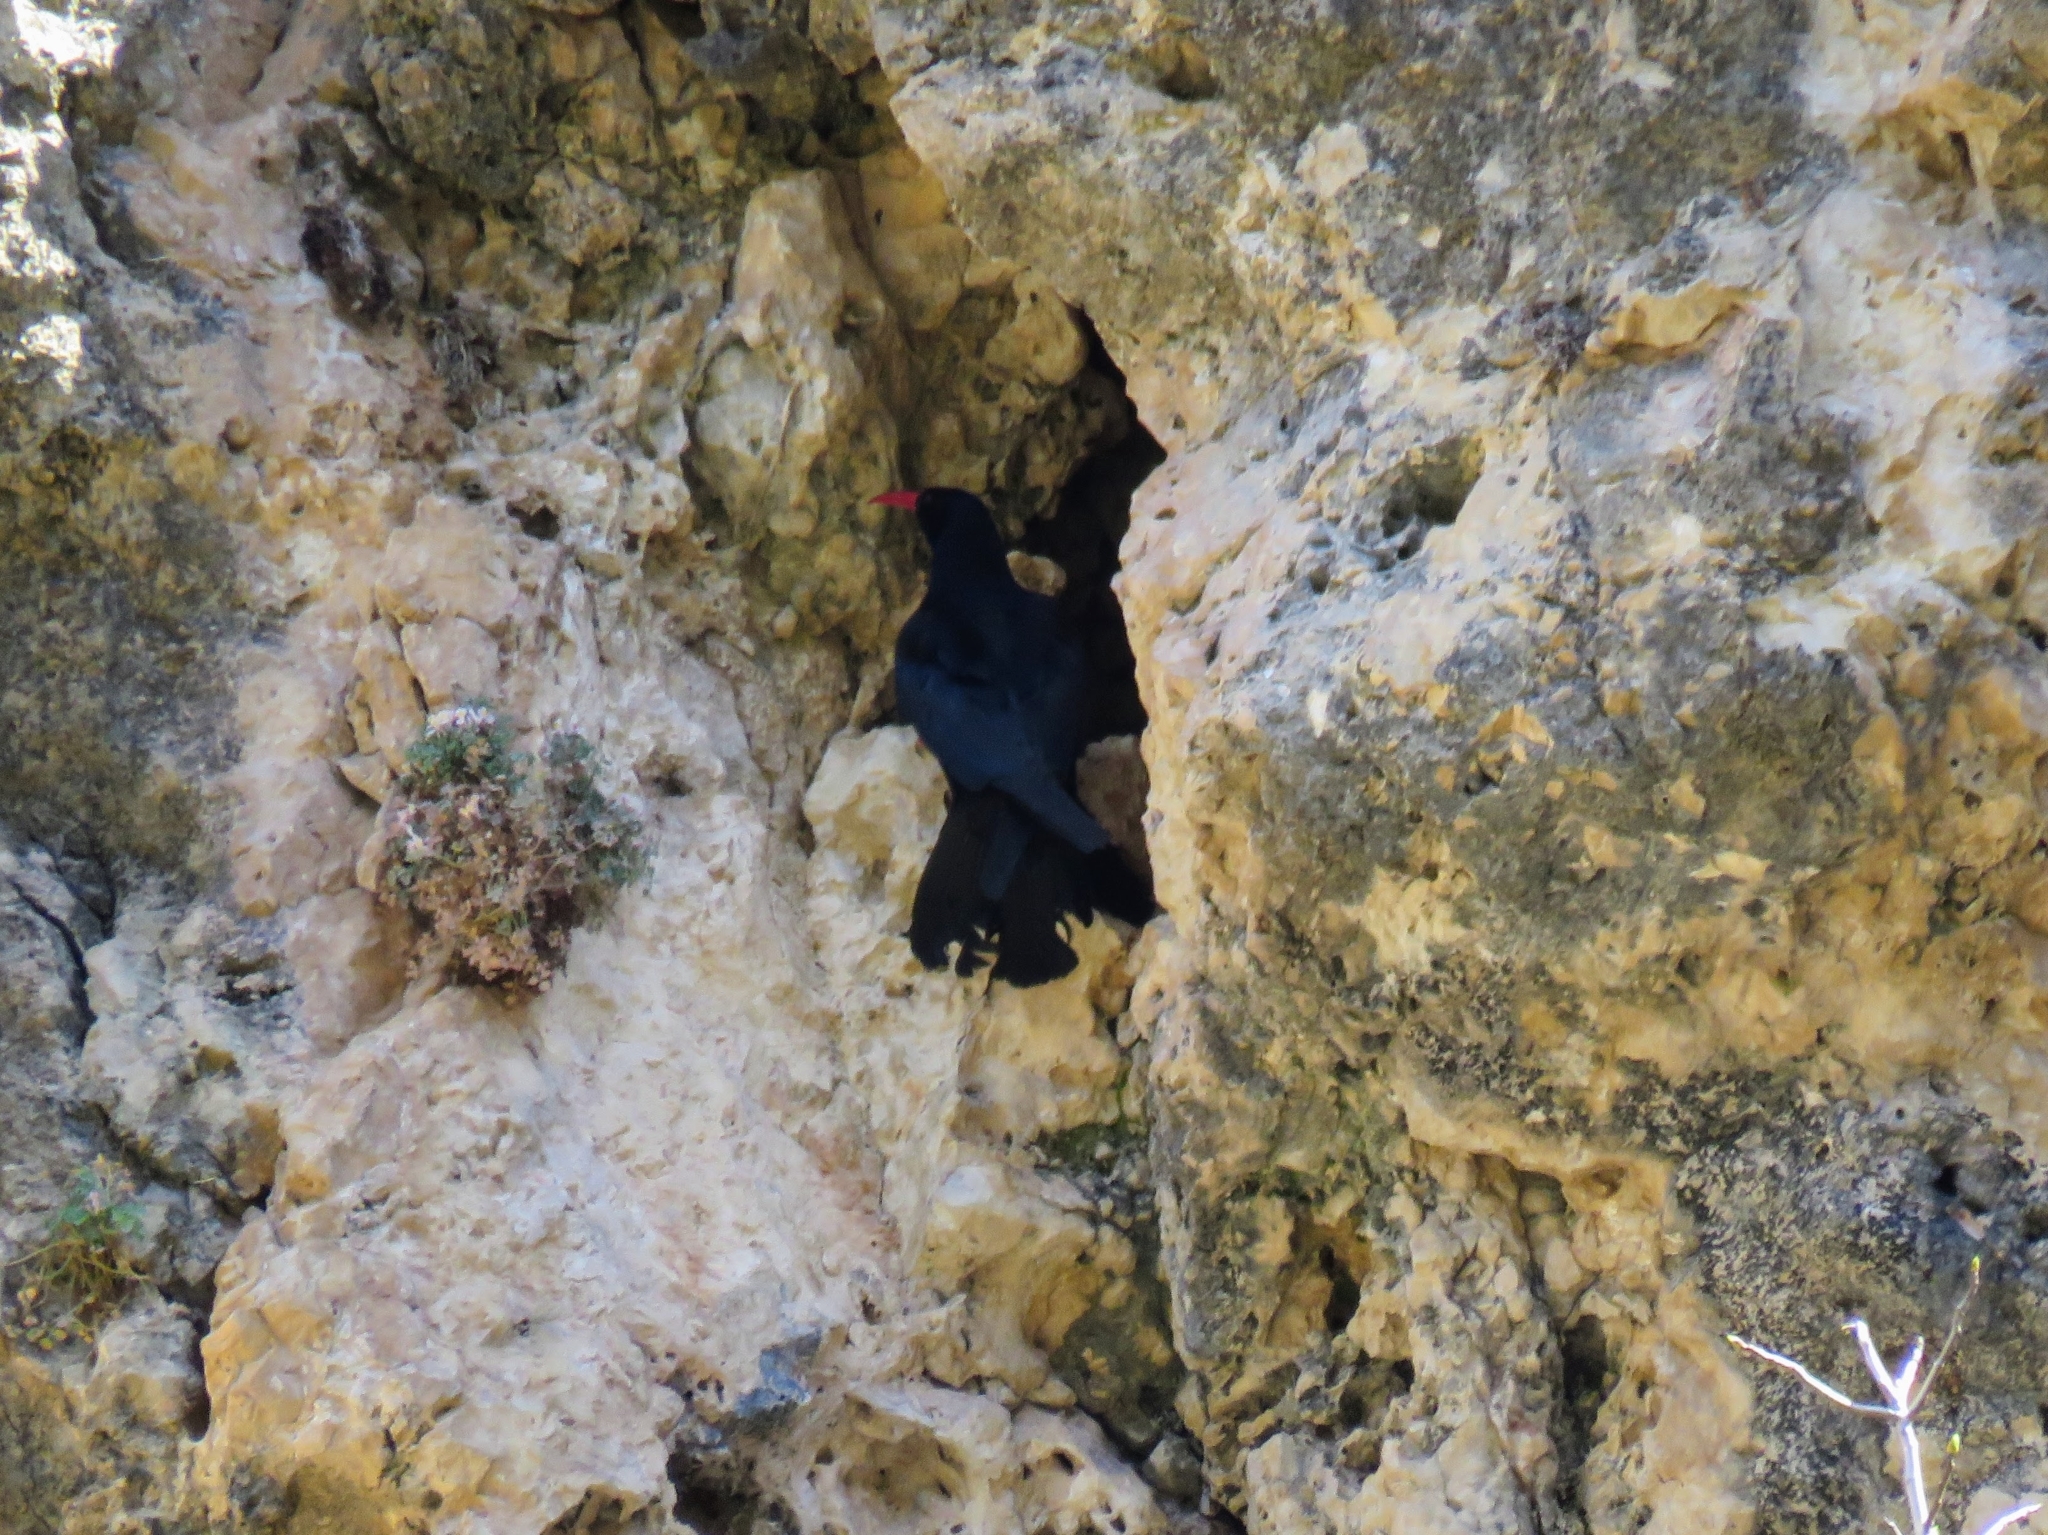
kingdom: Animalia
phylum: Chordata
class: Aves
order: Passeriformes
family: Corvidae
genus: Pyrrhocorax
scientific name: Pyrrhocorax pyrrhocorax
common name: Red-billed chough
